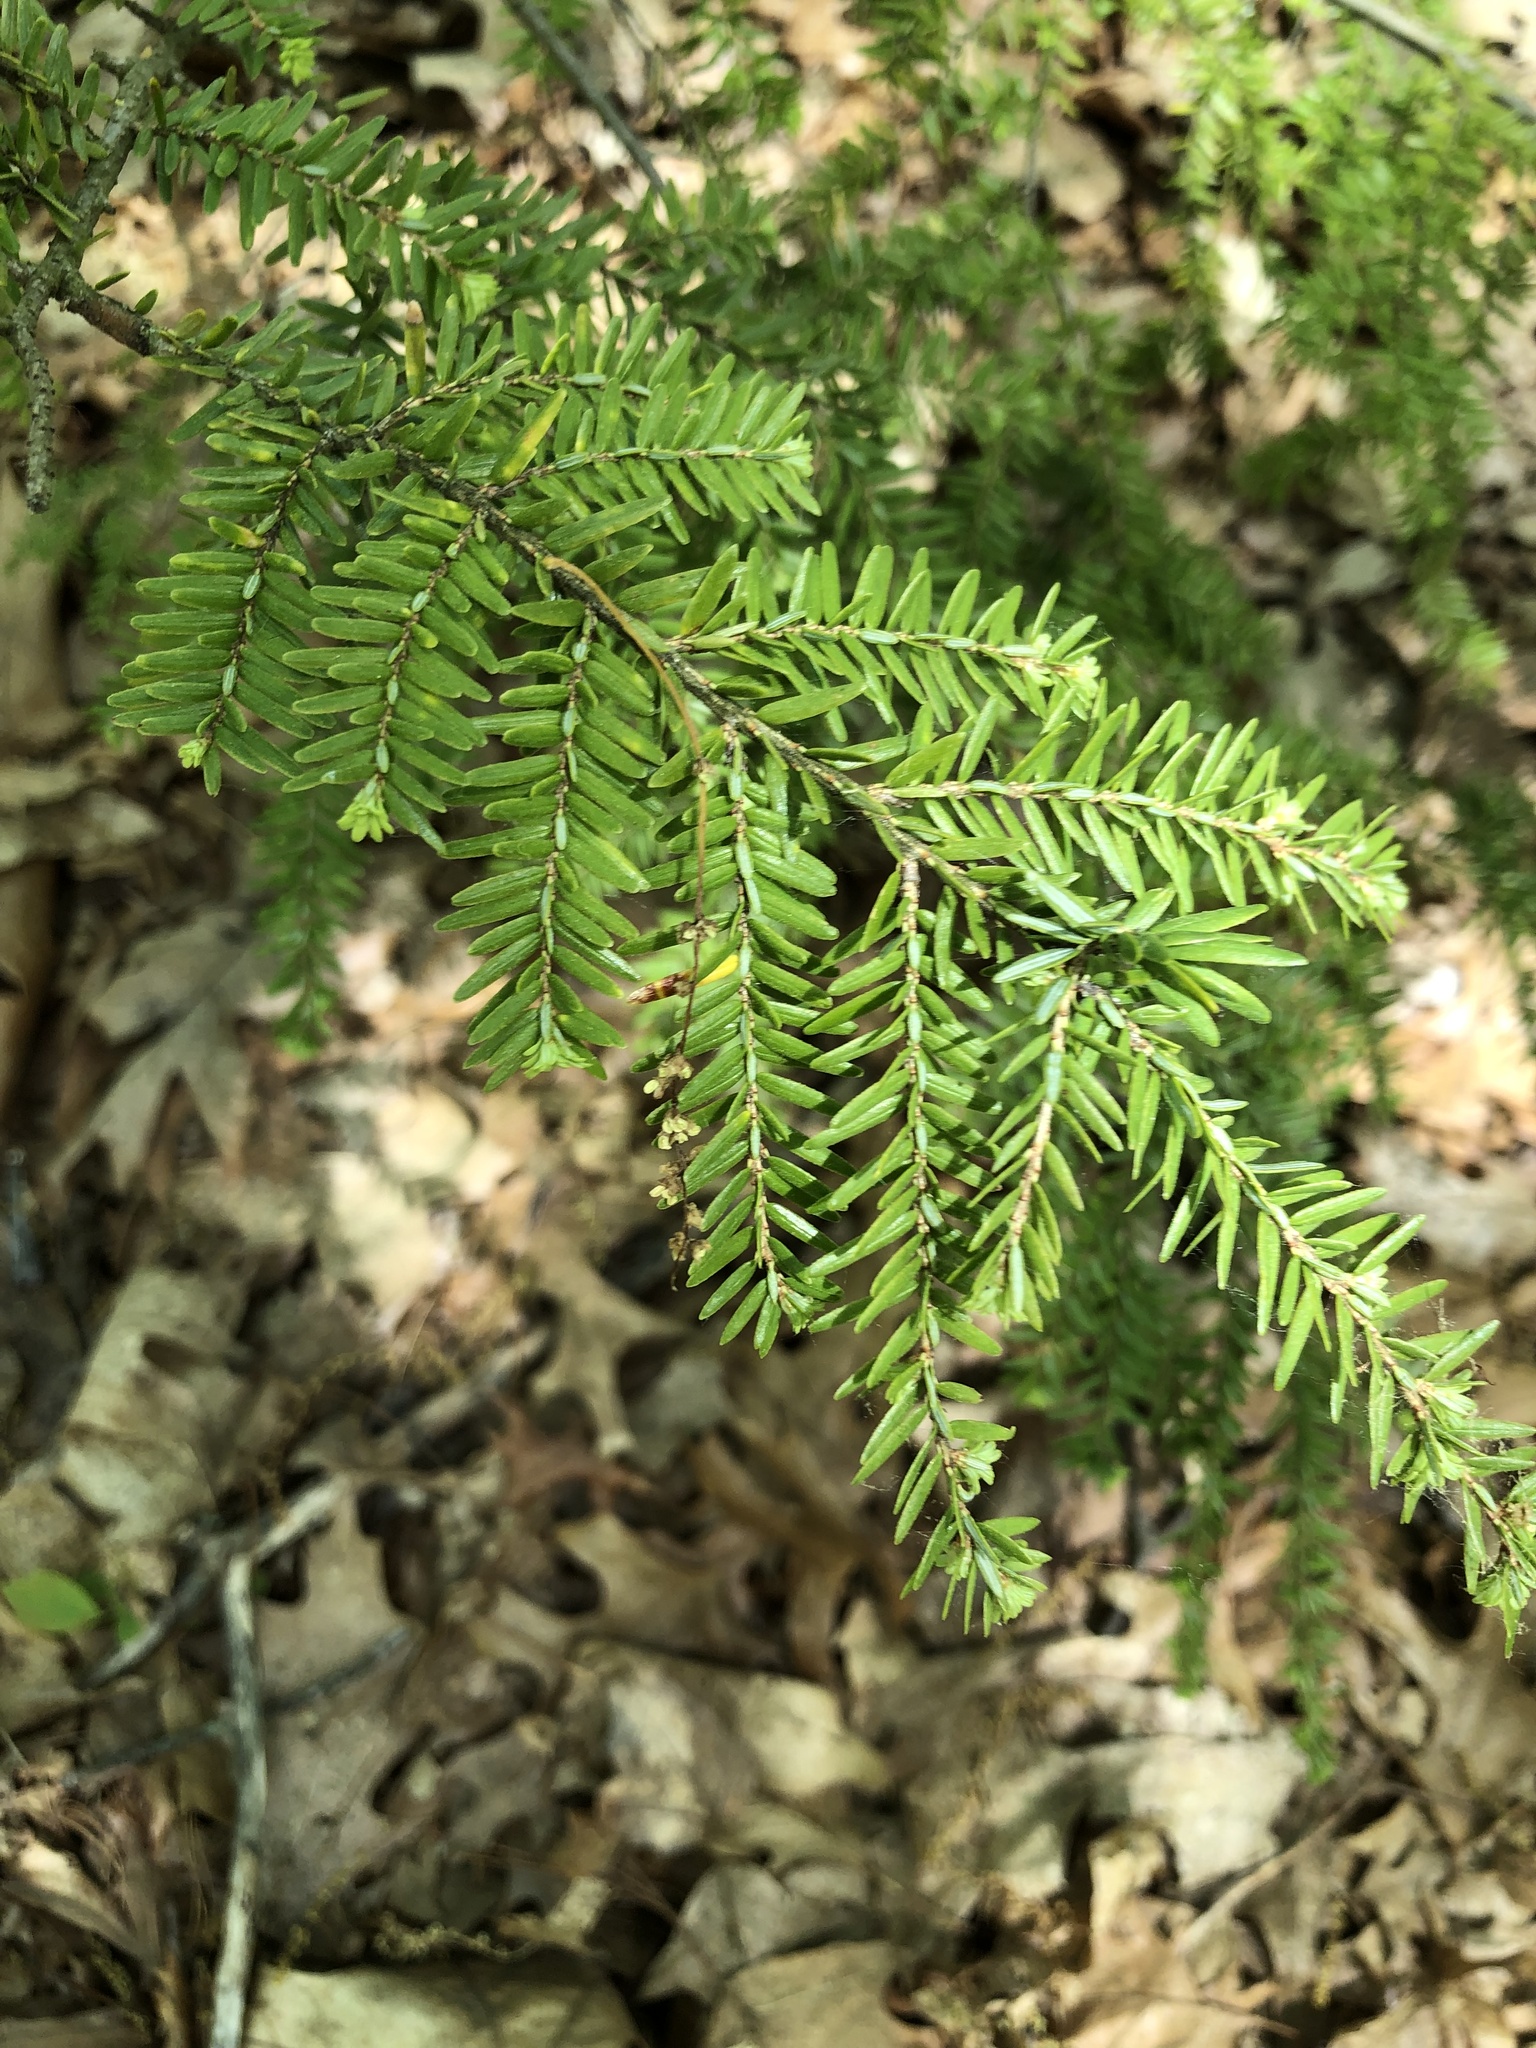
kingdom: Plantae
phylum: Tracheophyta
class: Pinopsida
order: Pinales
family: Pinaceae
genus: Tsuga
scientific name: Tsuga canadensis
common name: Eastern hemlock
